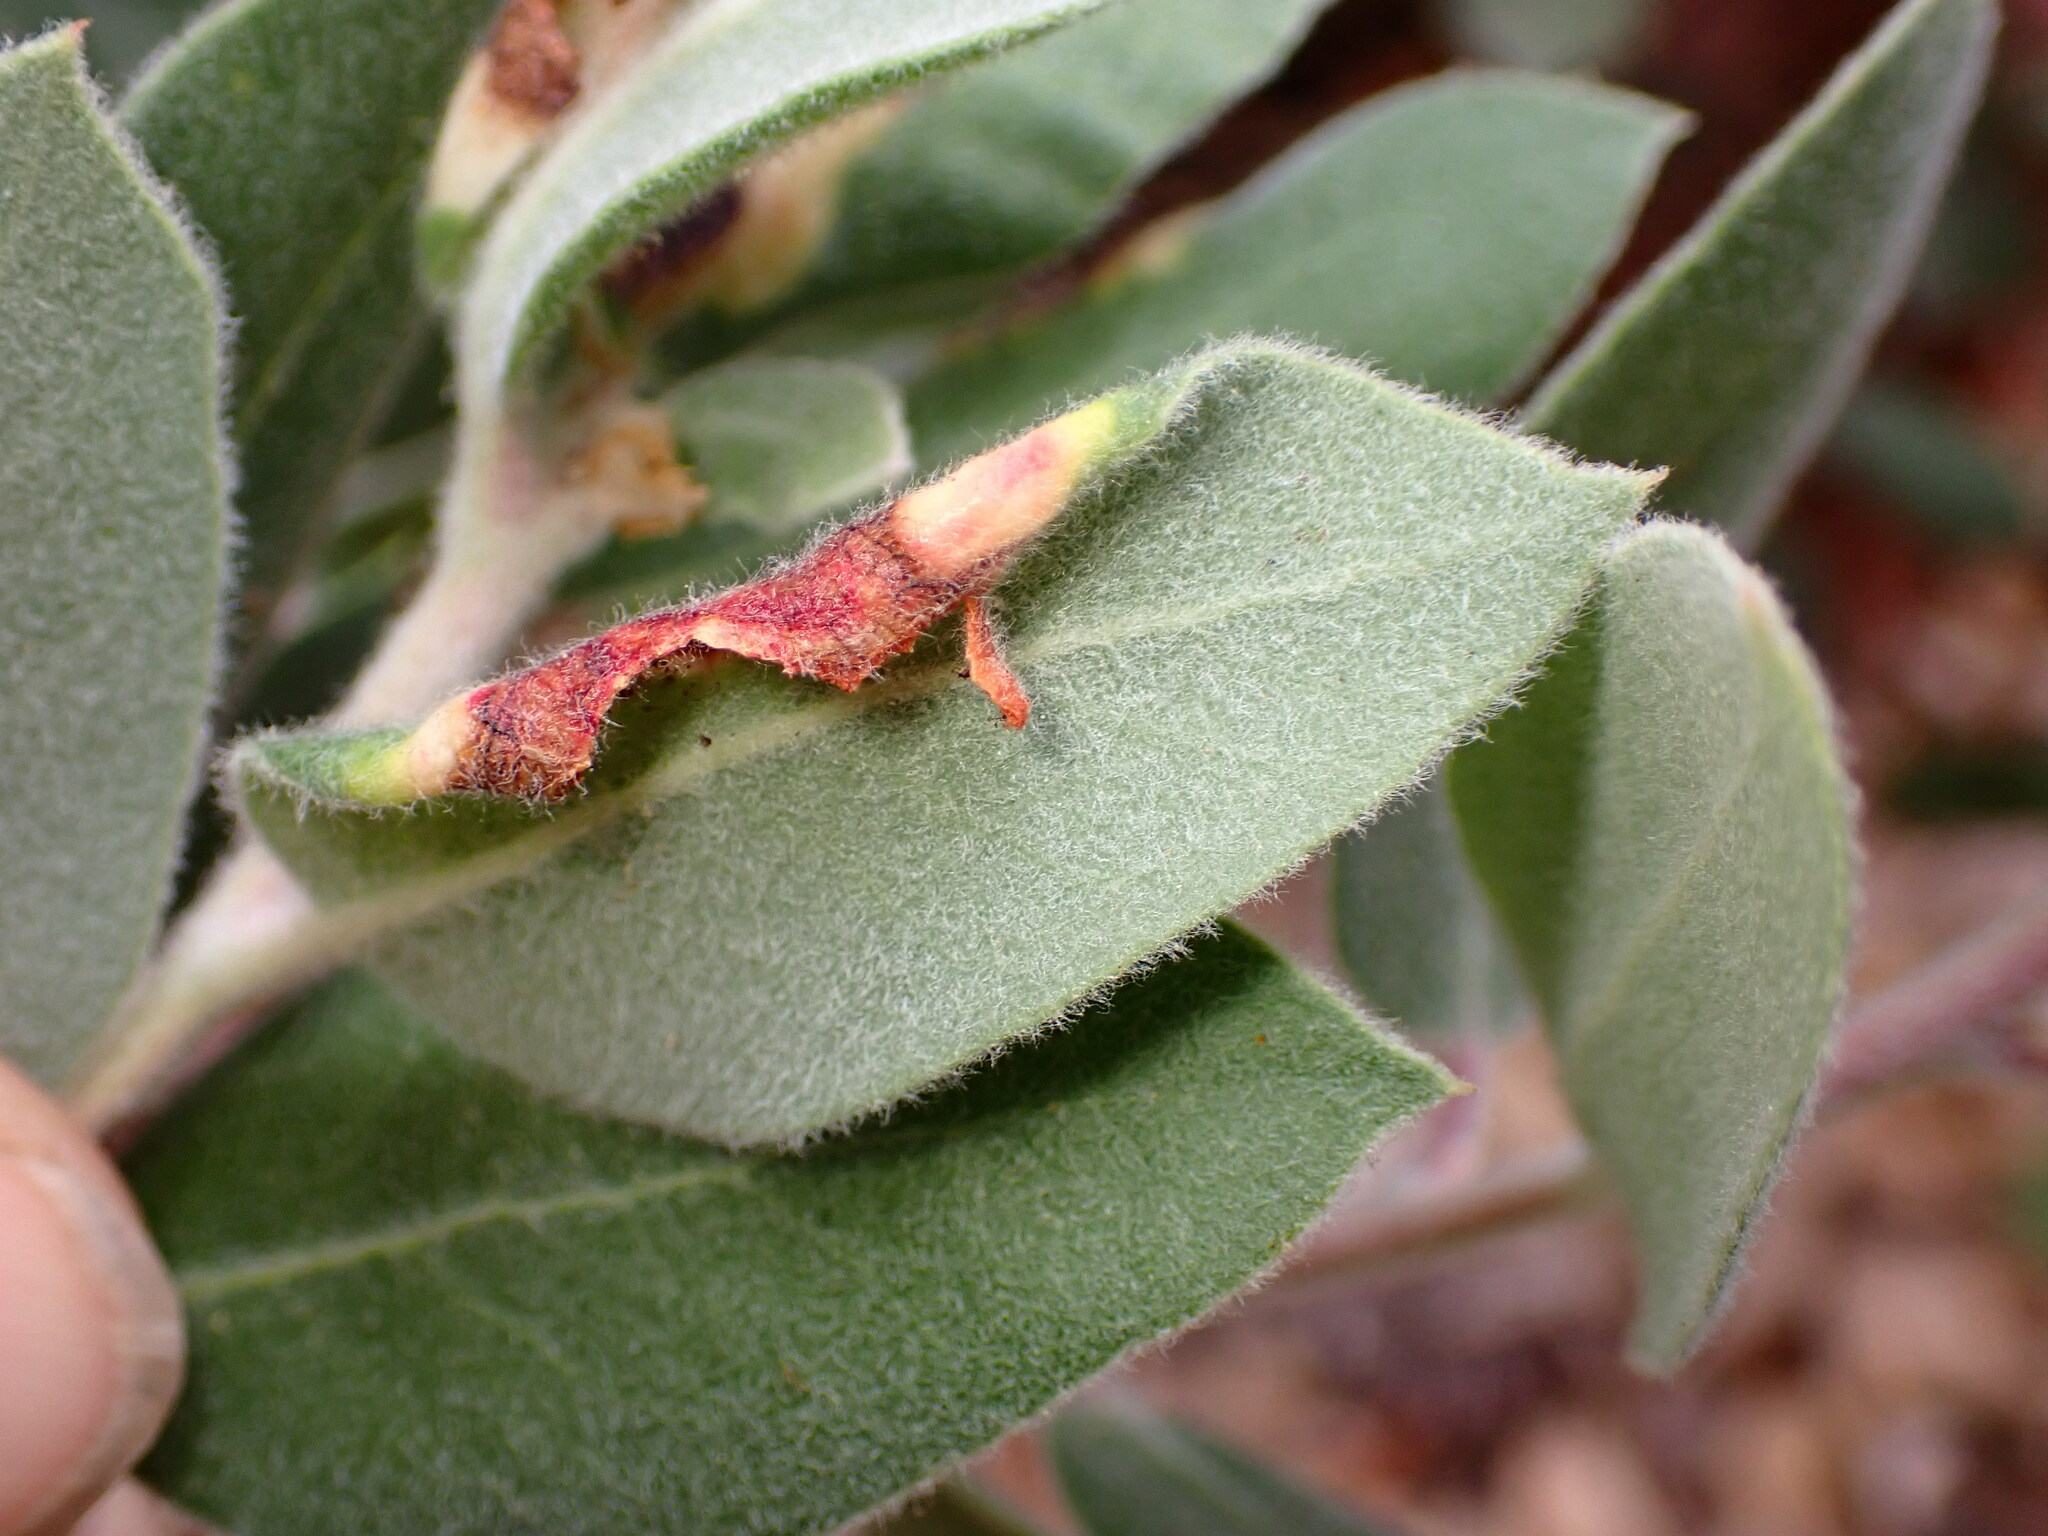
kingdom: Animalia
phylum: Arthropoda
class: Insecta
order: Hemiptera
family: Aphididae
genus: Tamalia
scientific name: Tamalia coweni
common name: Manzanita leafgall aphid
